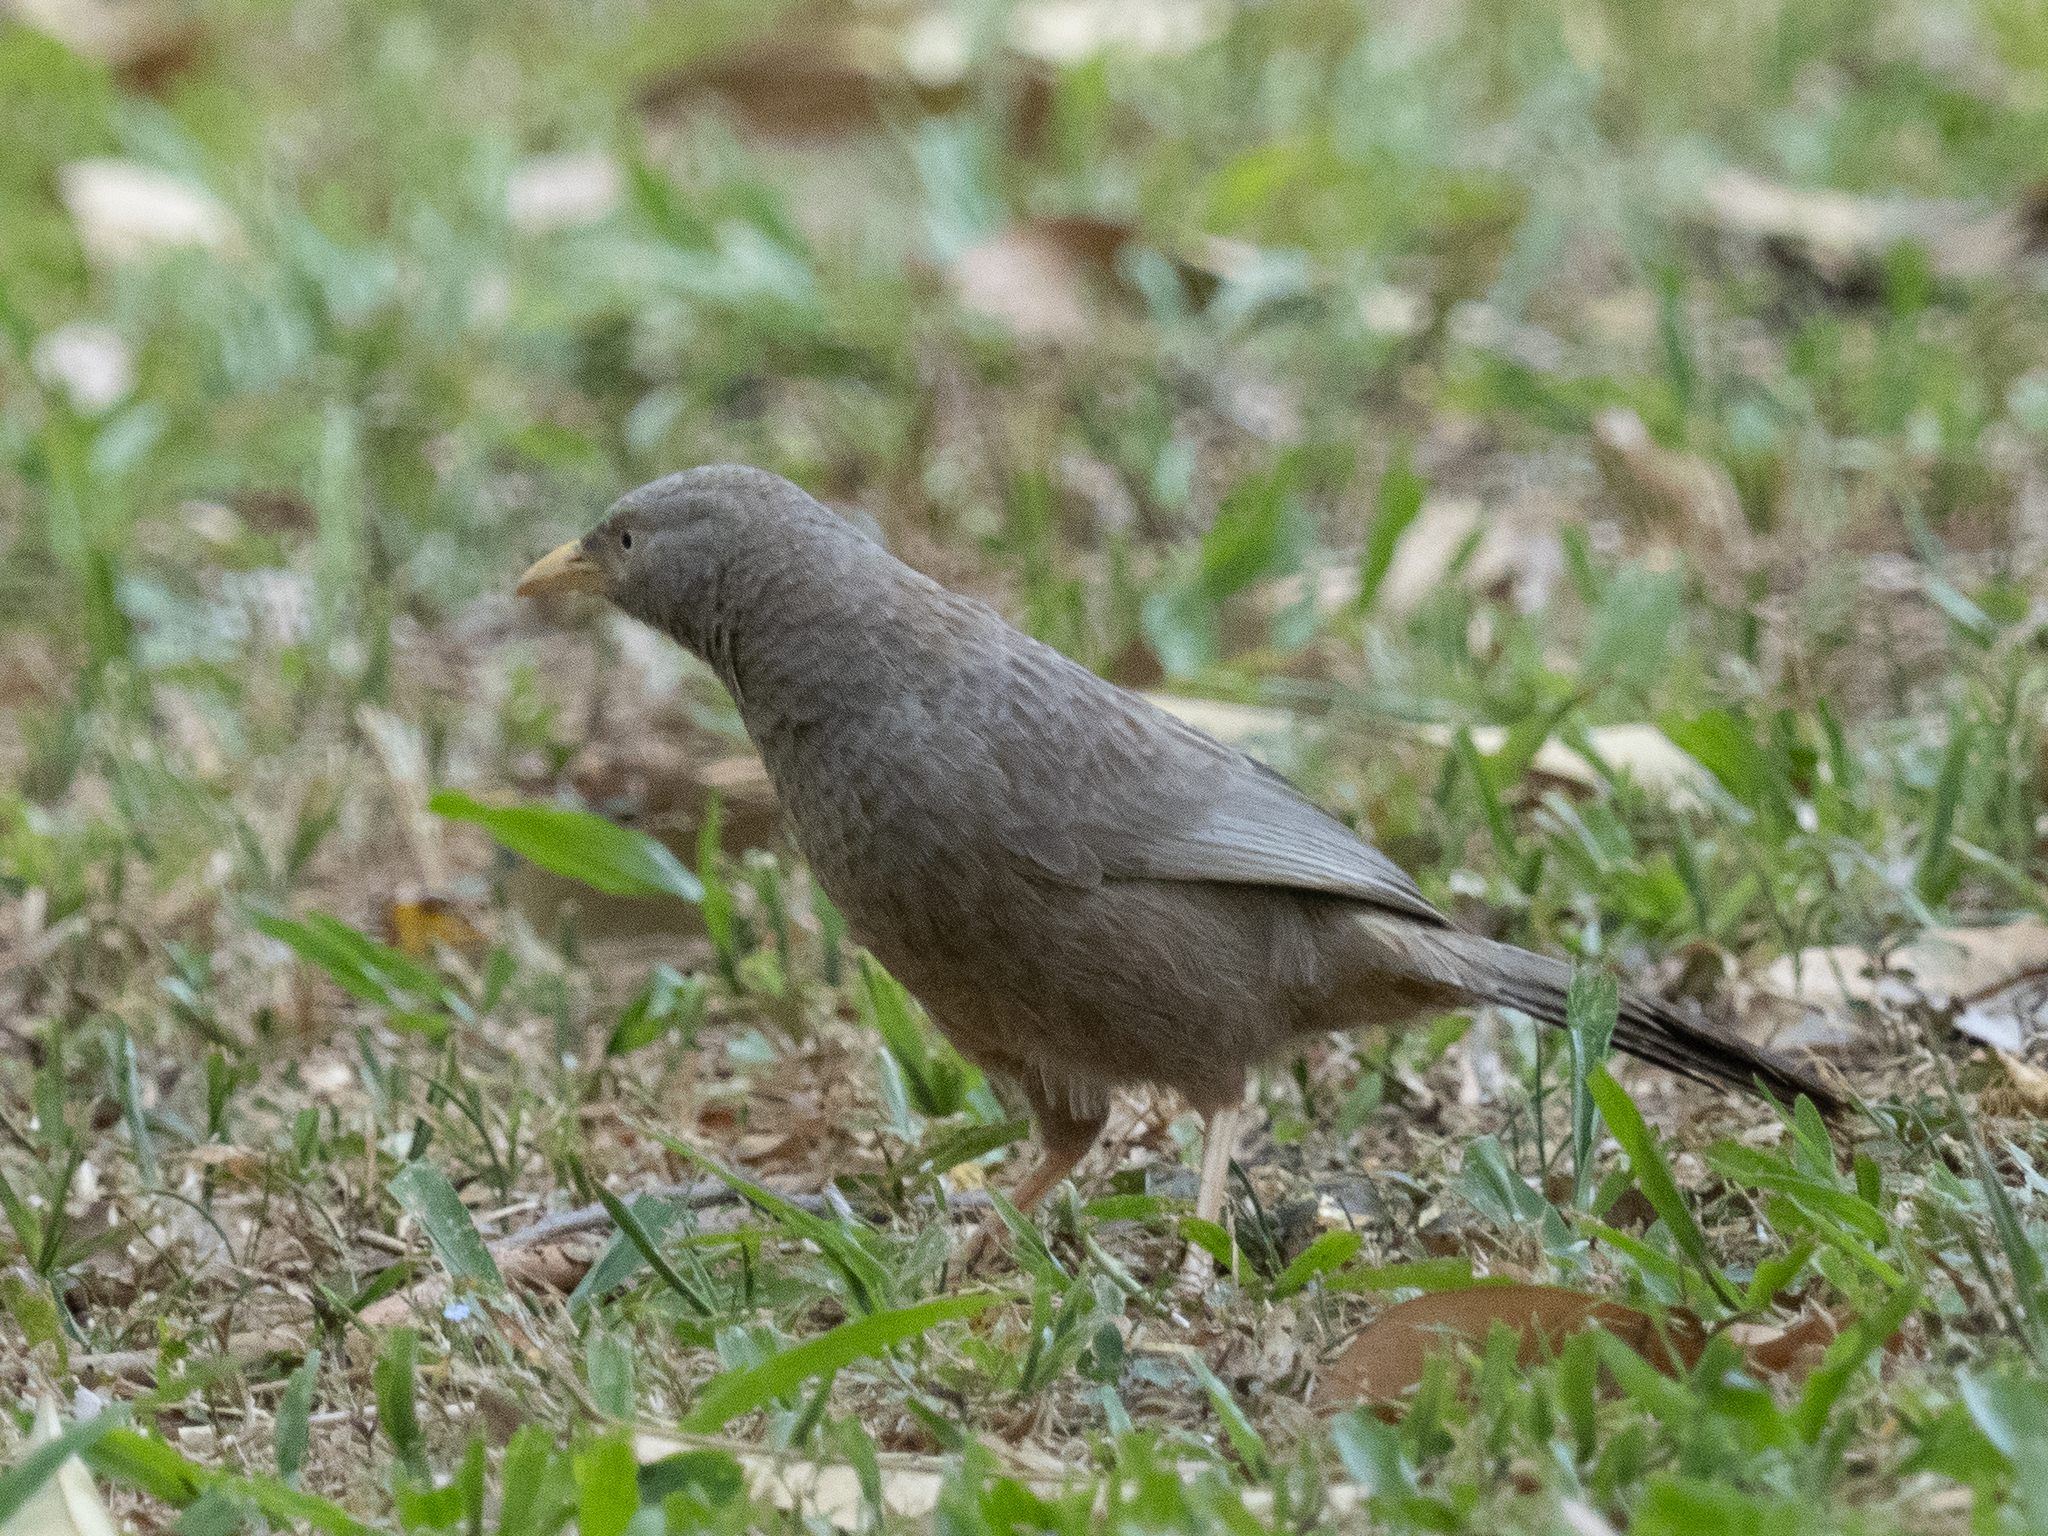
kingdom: Animalia
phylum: Chordata
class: Aves
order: Passeriformes
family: Leiothrichidae
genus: Turdoides
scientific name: Turdoides affinis
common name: Yellow-billed babbler
